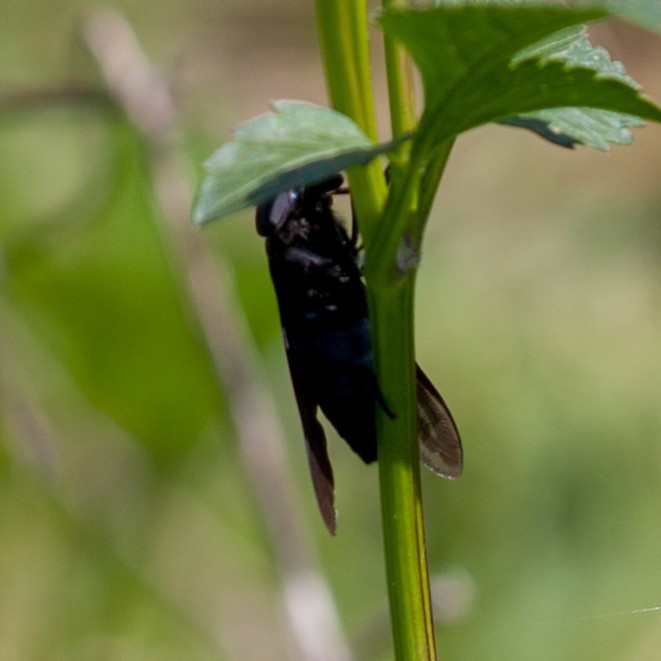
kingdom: Animalia
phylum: Arthropoda
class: Insecta
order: Diptera
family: Tabanidae
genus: Tabanus
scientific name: Tabanus atratus
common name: Black horse fly
